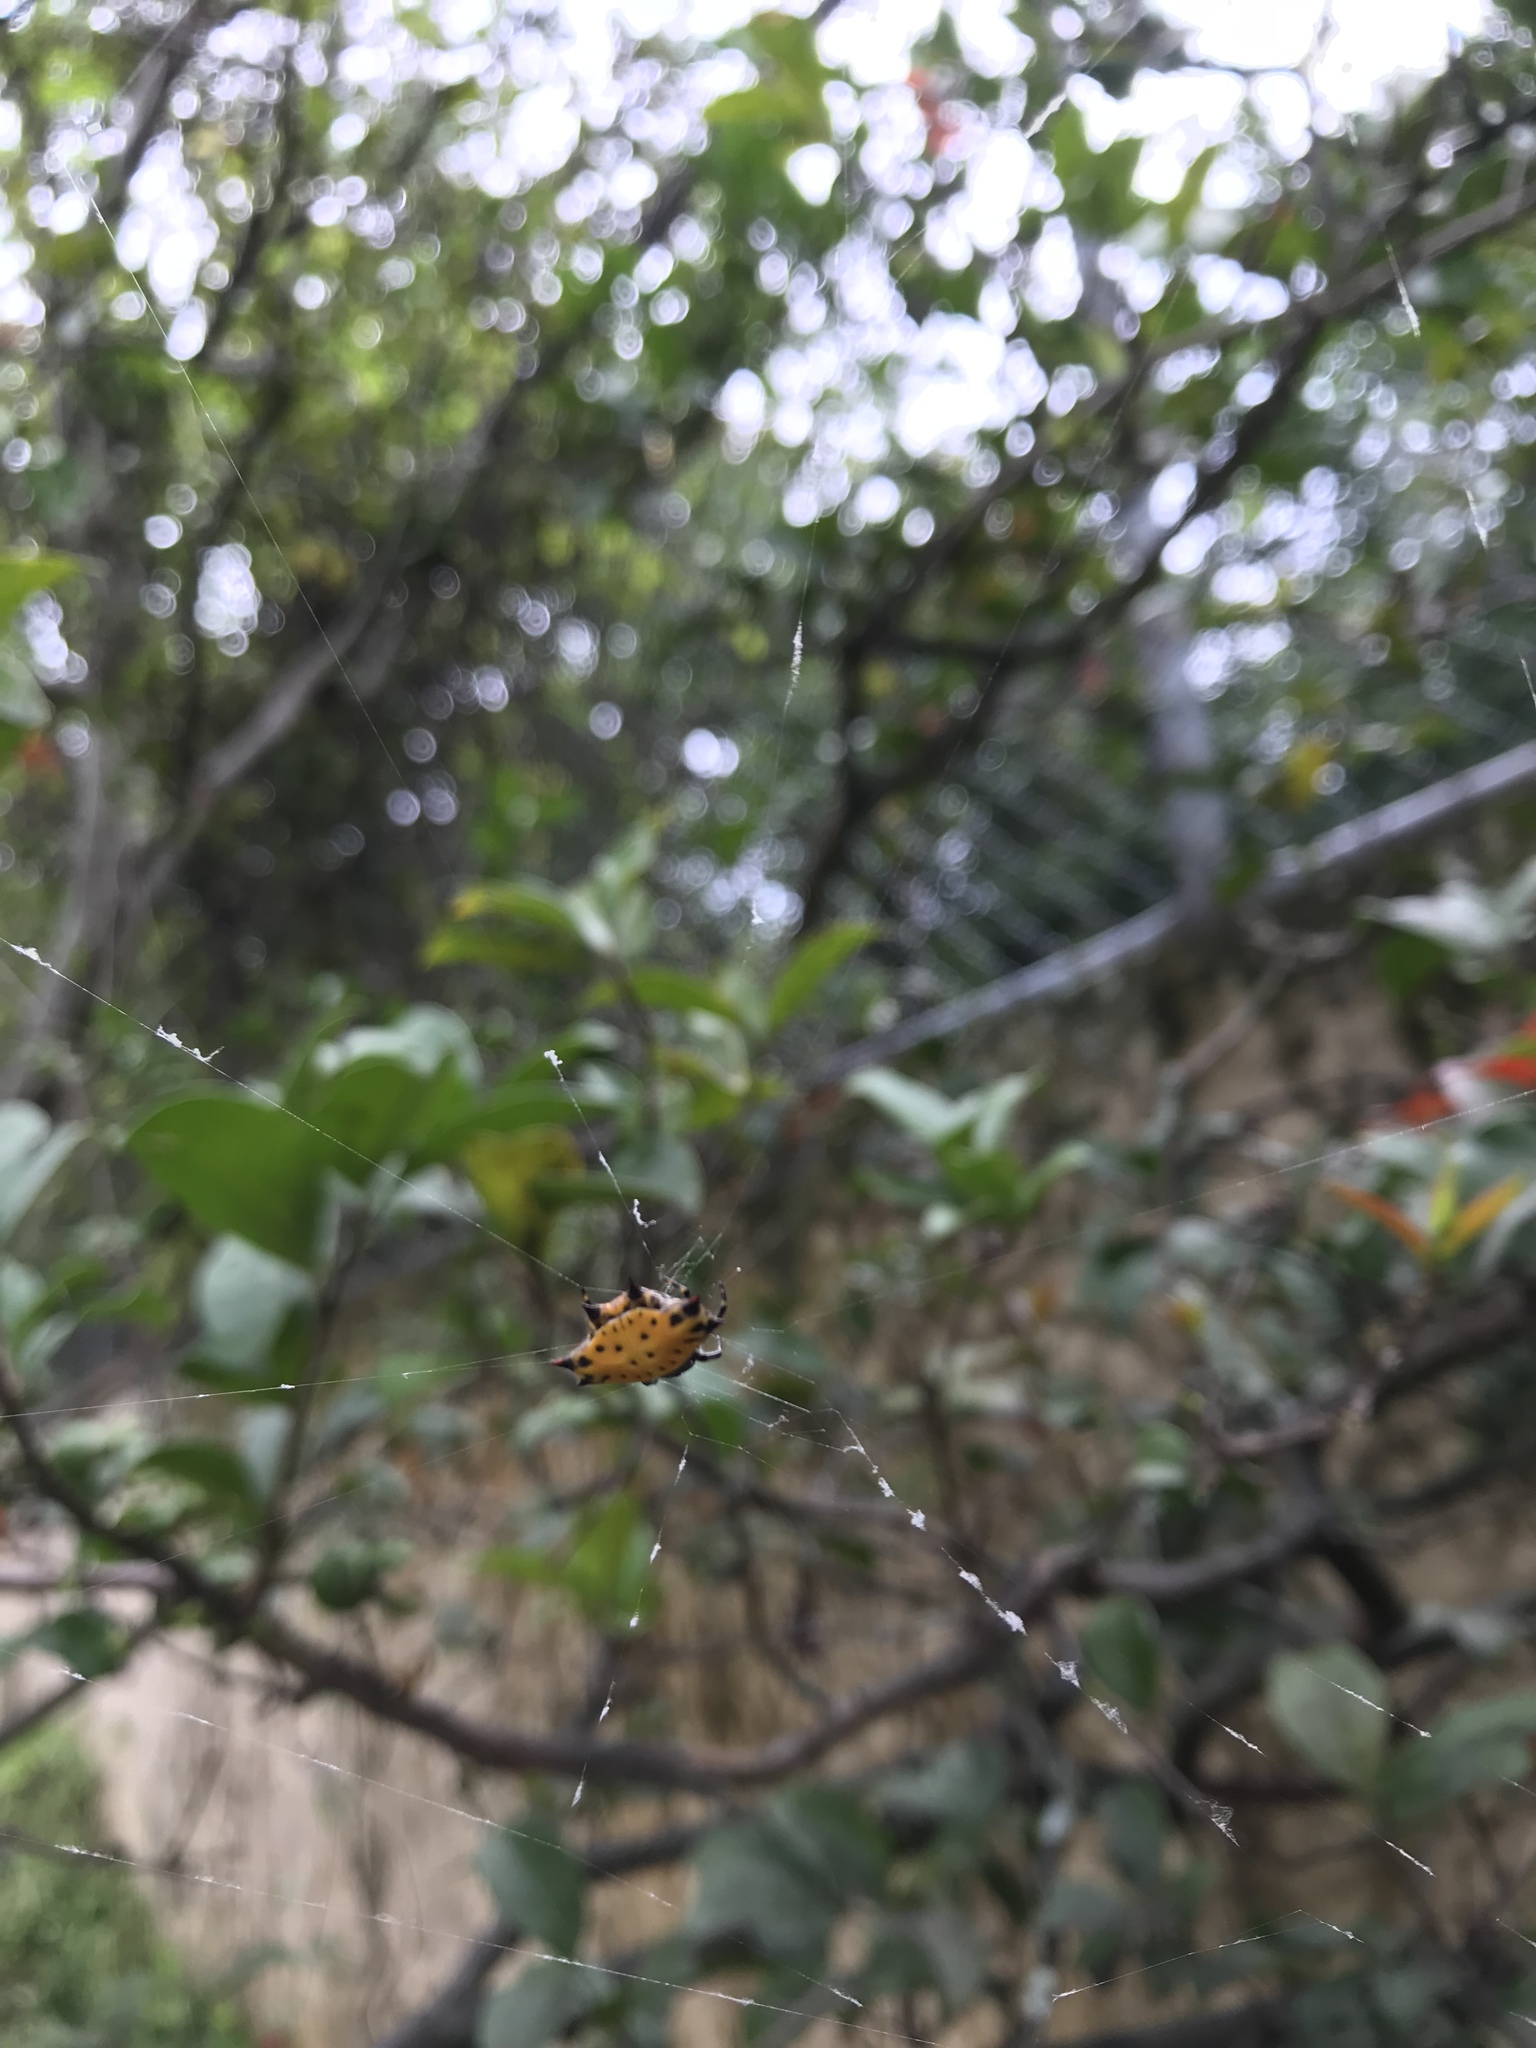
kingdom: Animalia
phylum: Arthropoda
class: Arachnida
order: Araneae
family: Araneidae
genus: Gasteracantha
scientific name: Gasteracantha cancriformis
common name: Orb weavers
